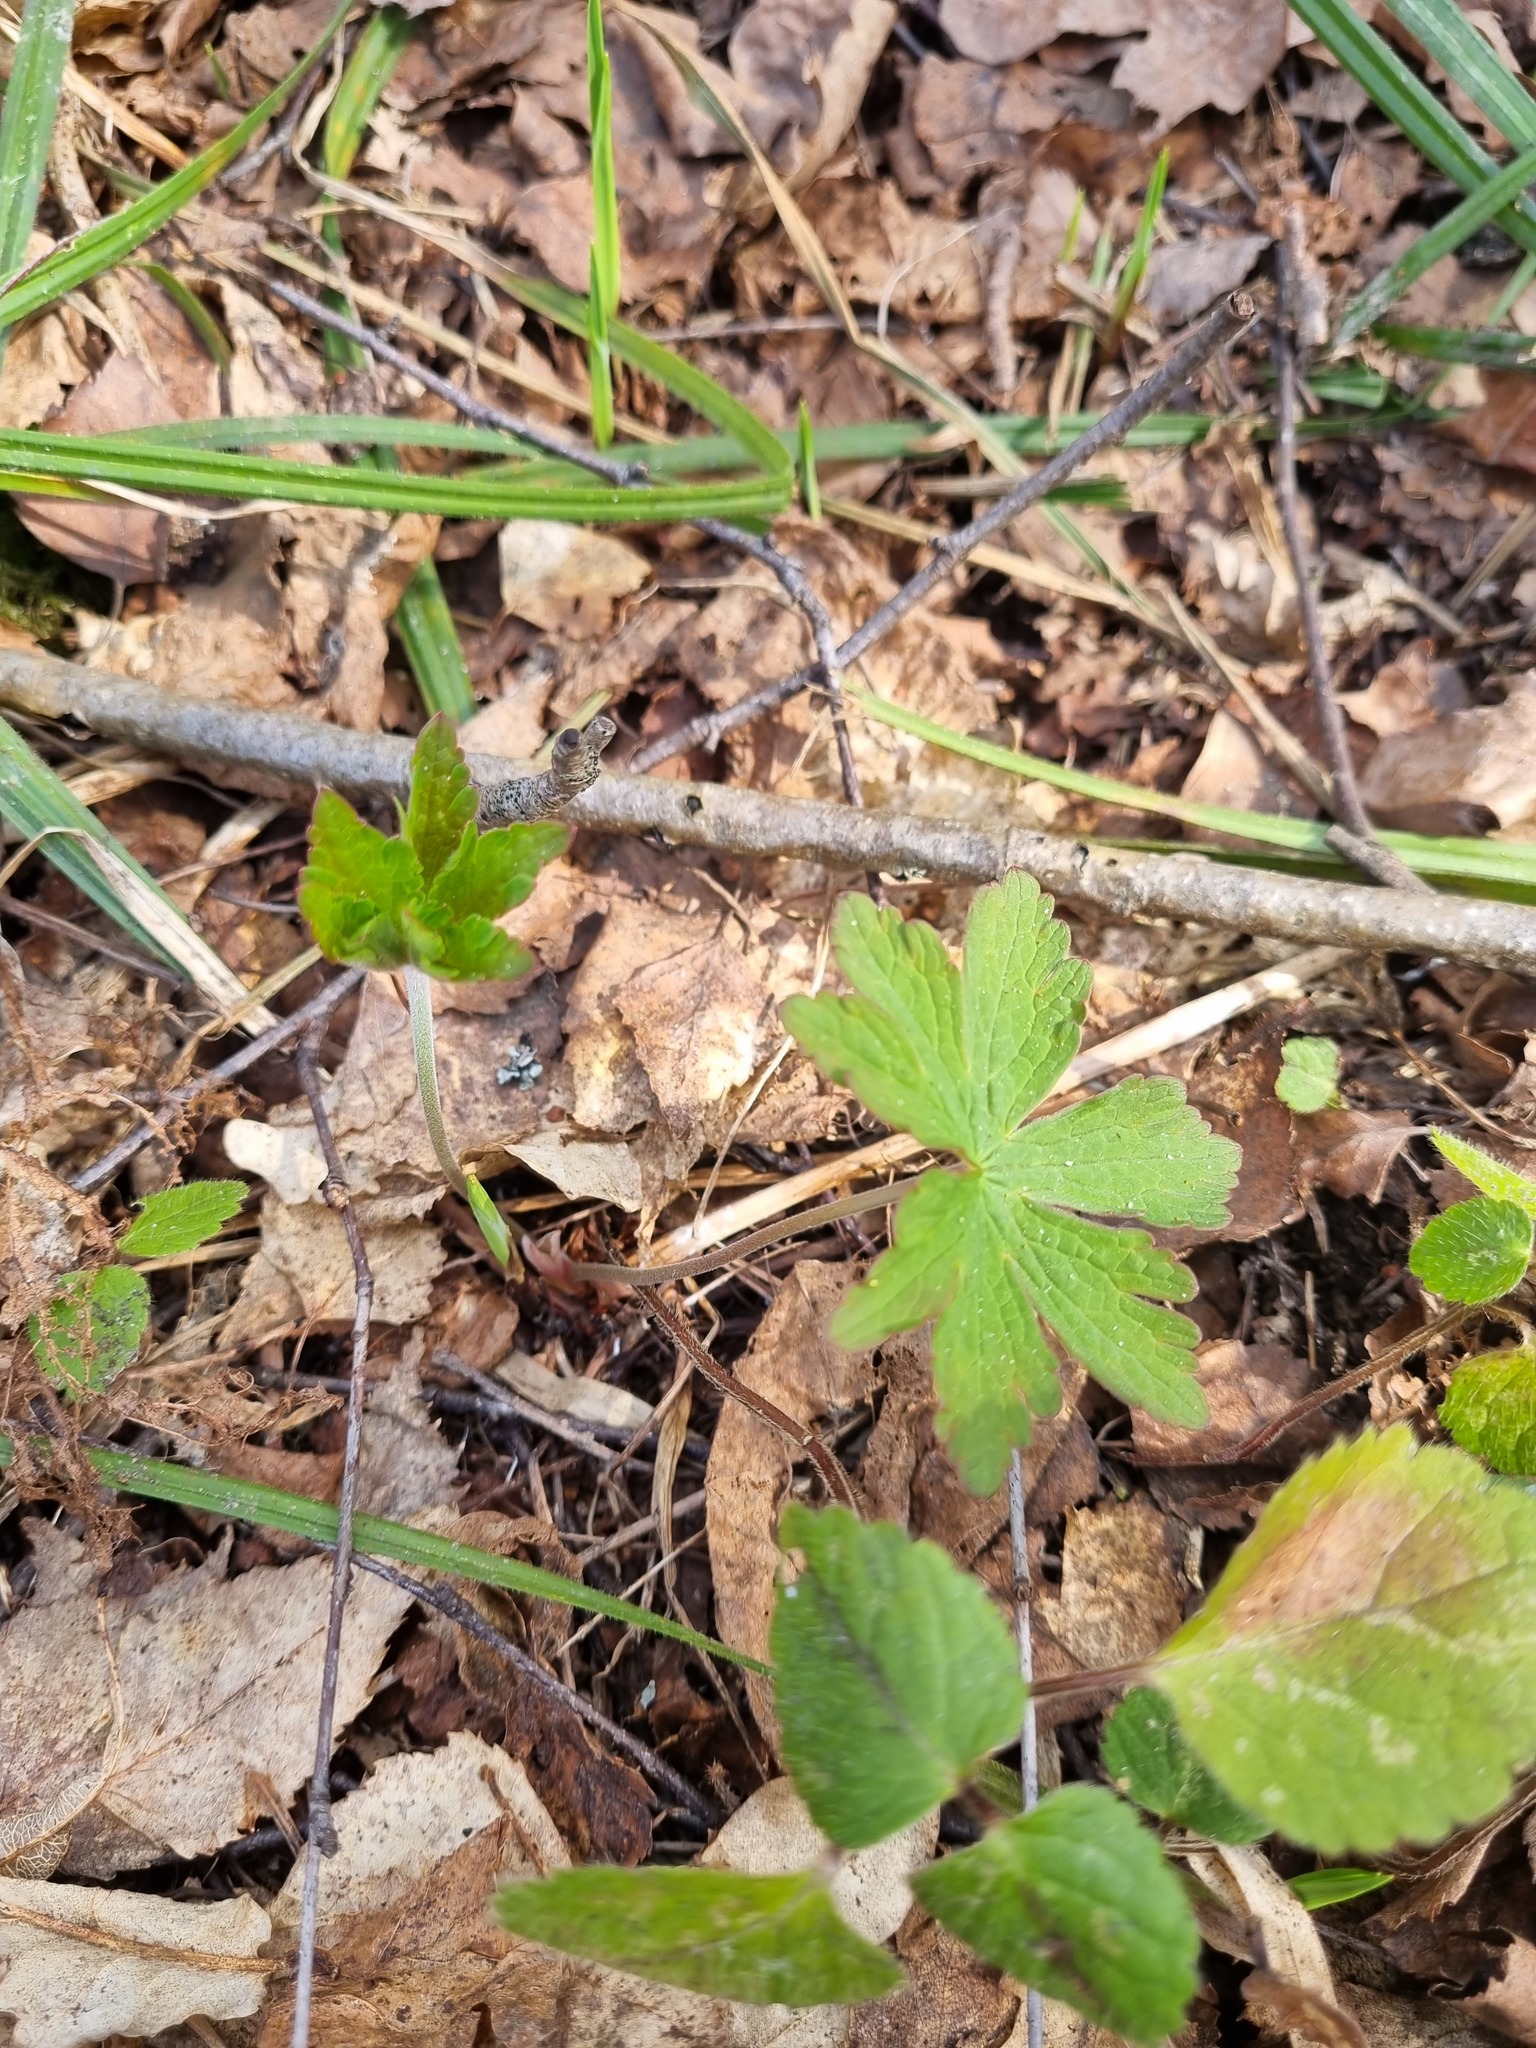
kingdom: Plantae
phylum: Tracheophyta
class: Magnoliopsida
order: Geraniales
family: Geraniaceae
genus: Geranium
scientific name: Geranium sylvaticum
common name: Wood crane's-bill
